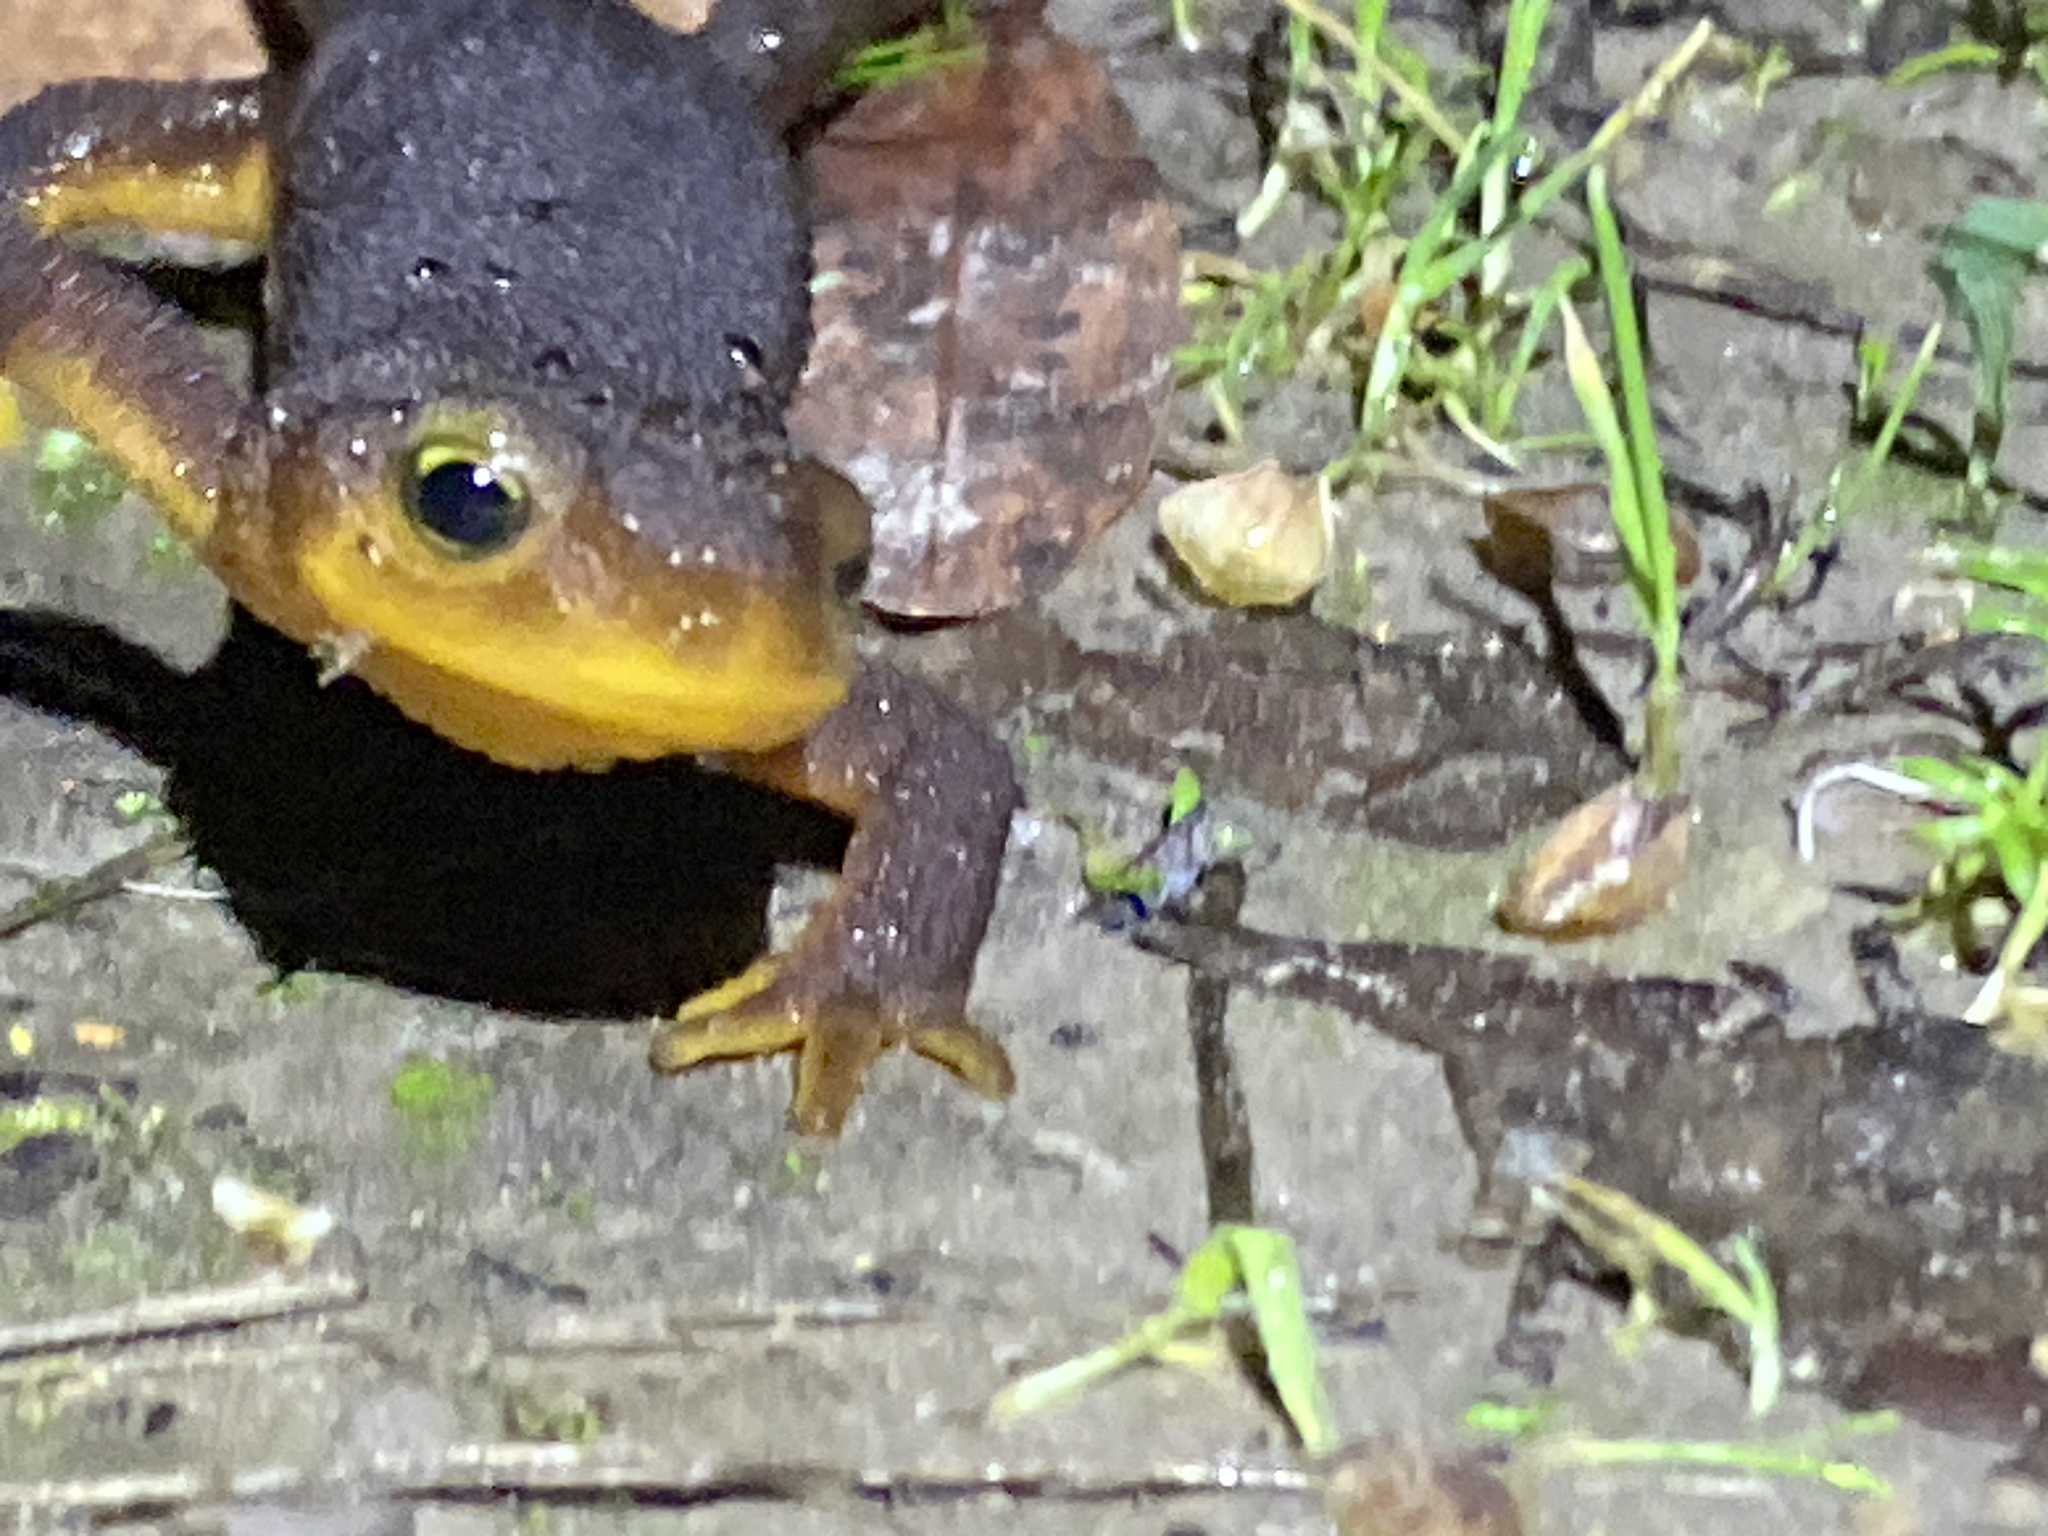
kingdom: Animalia
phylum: Chordata
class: Amphibia
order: Caudata
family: Salamandridae
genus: Taricha
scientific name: Taricha torosa
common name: California newt
